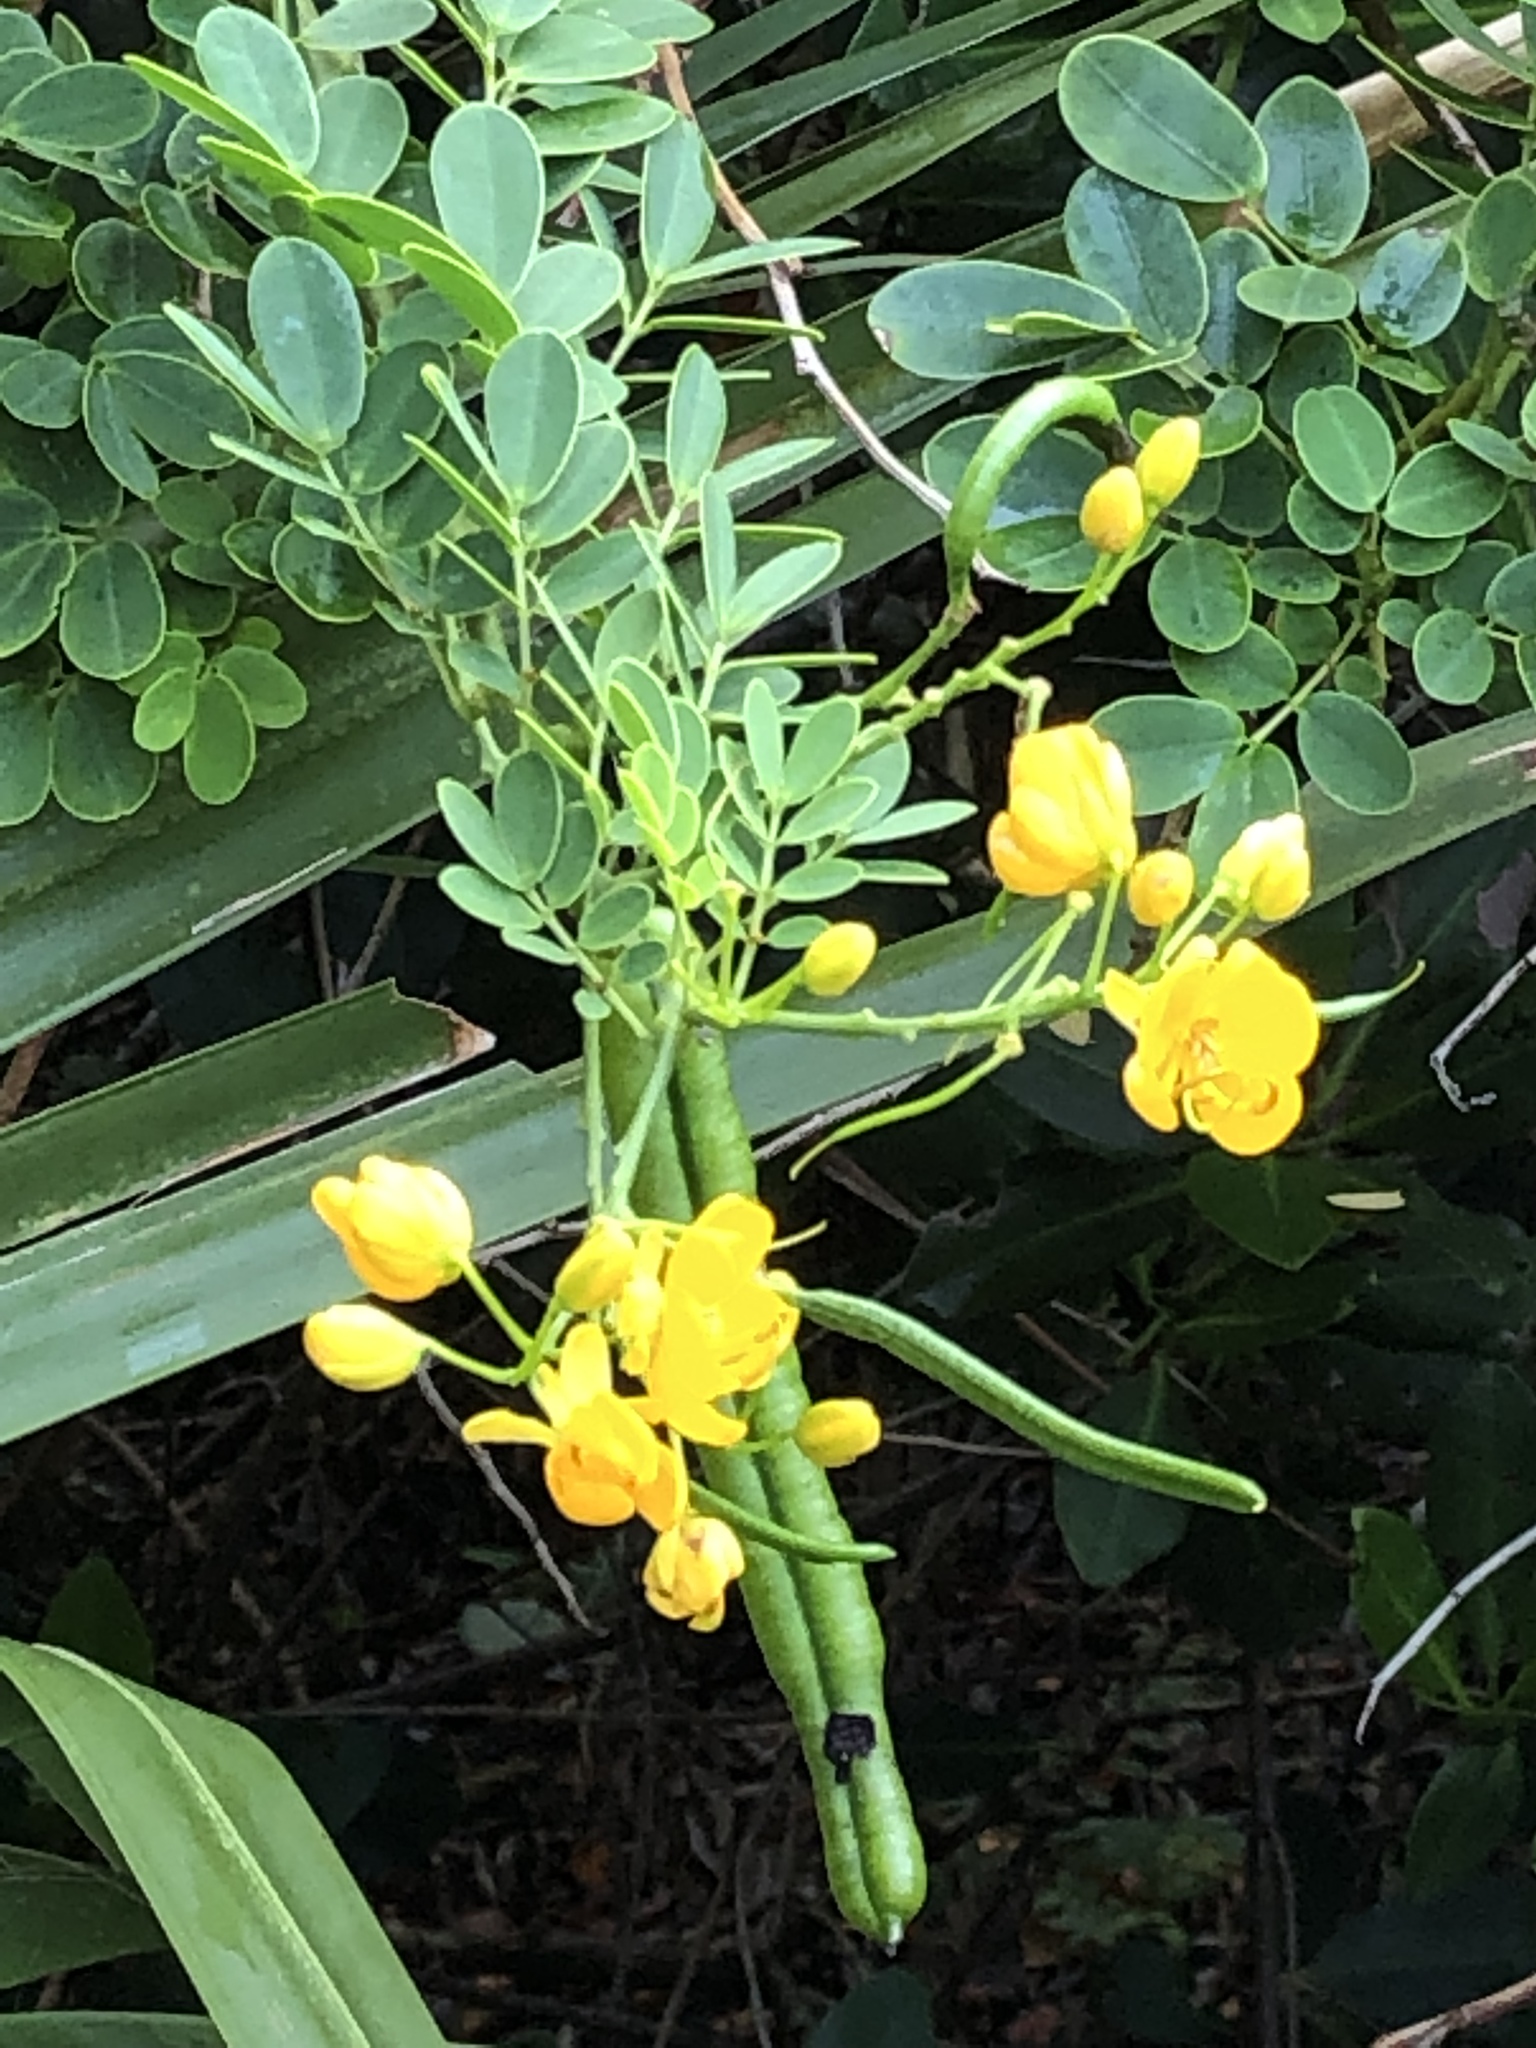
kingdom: Plantae
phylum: Tracheophyta
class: Magnoliopsida
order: Fabales
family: Fabaceae
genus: Senna
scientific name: Senna pendula
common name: Easter cassia
